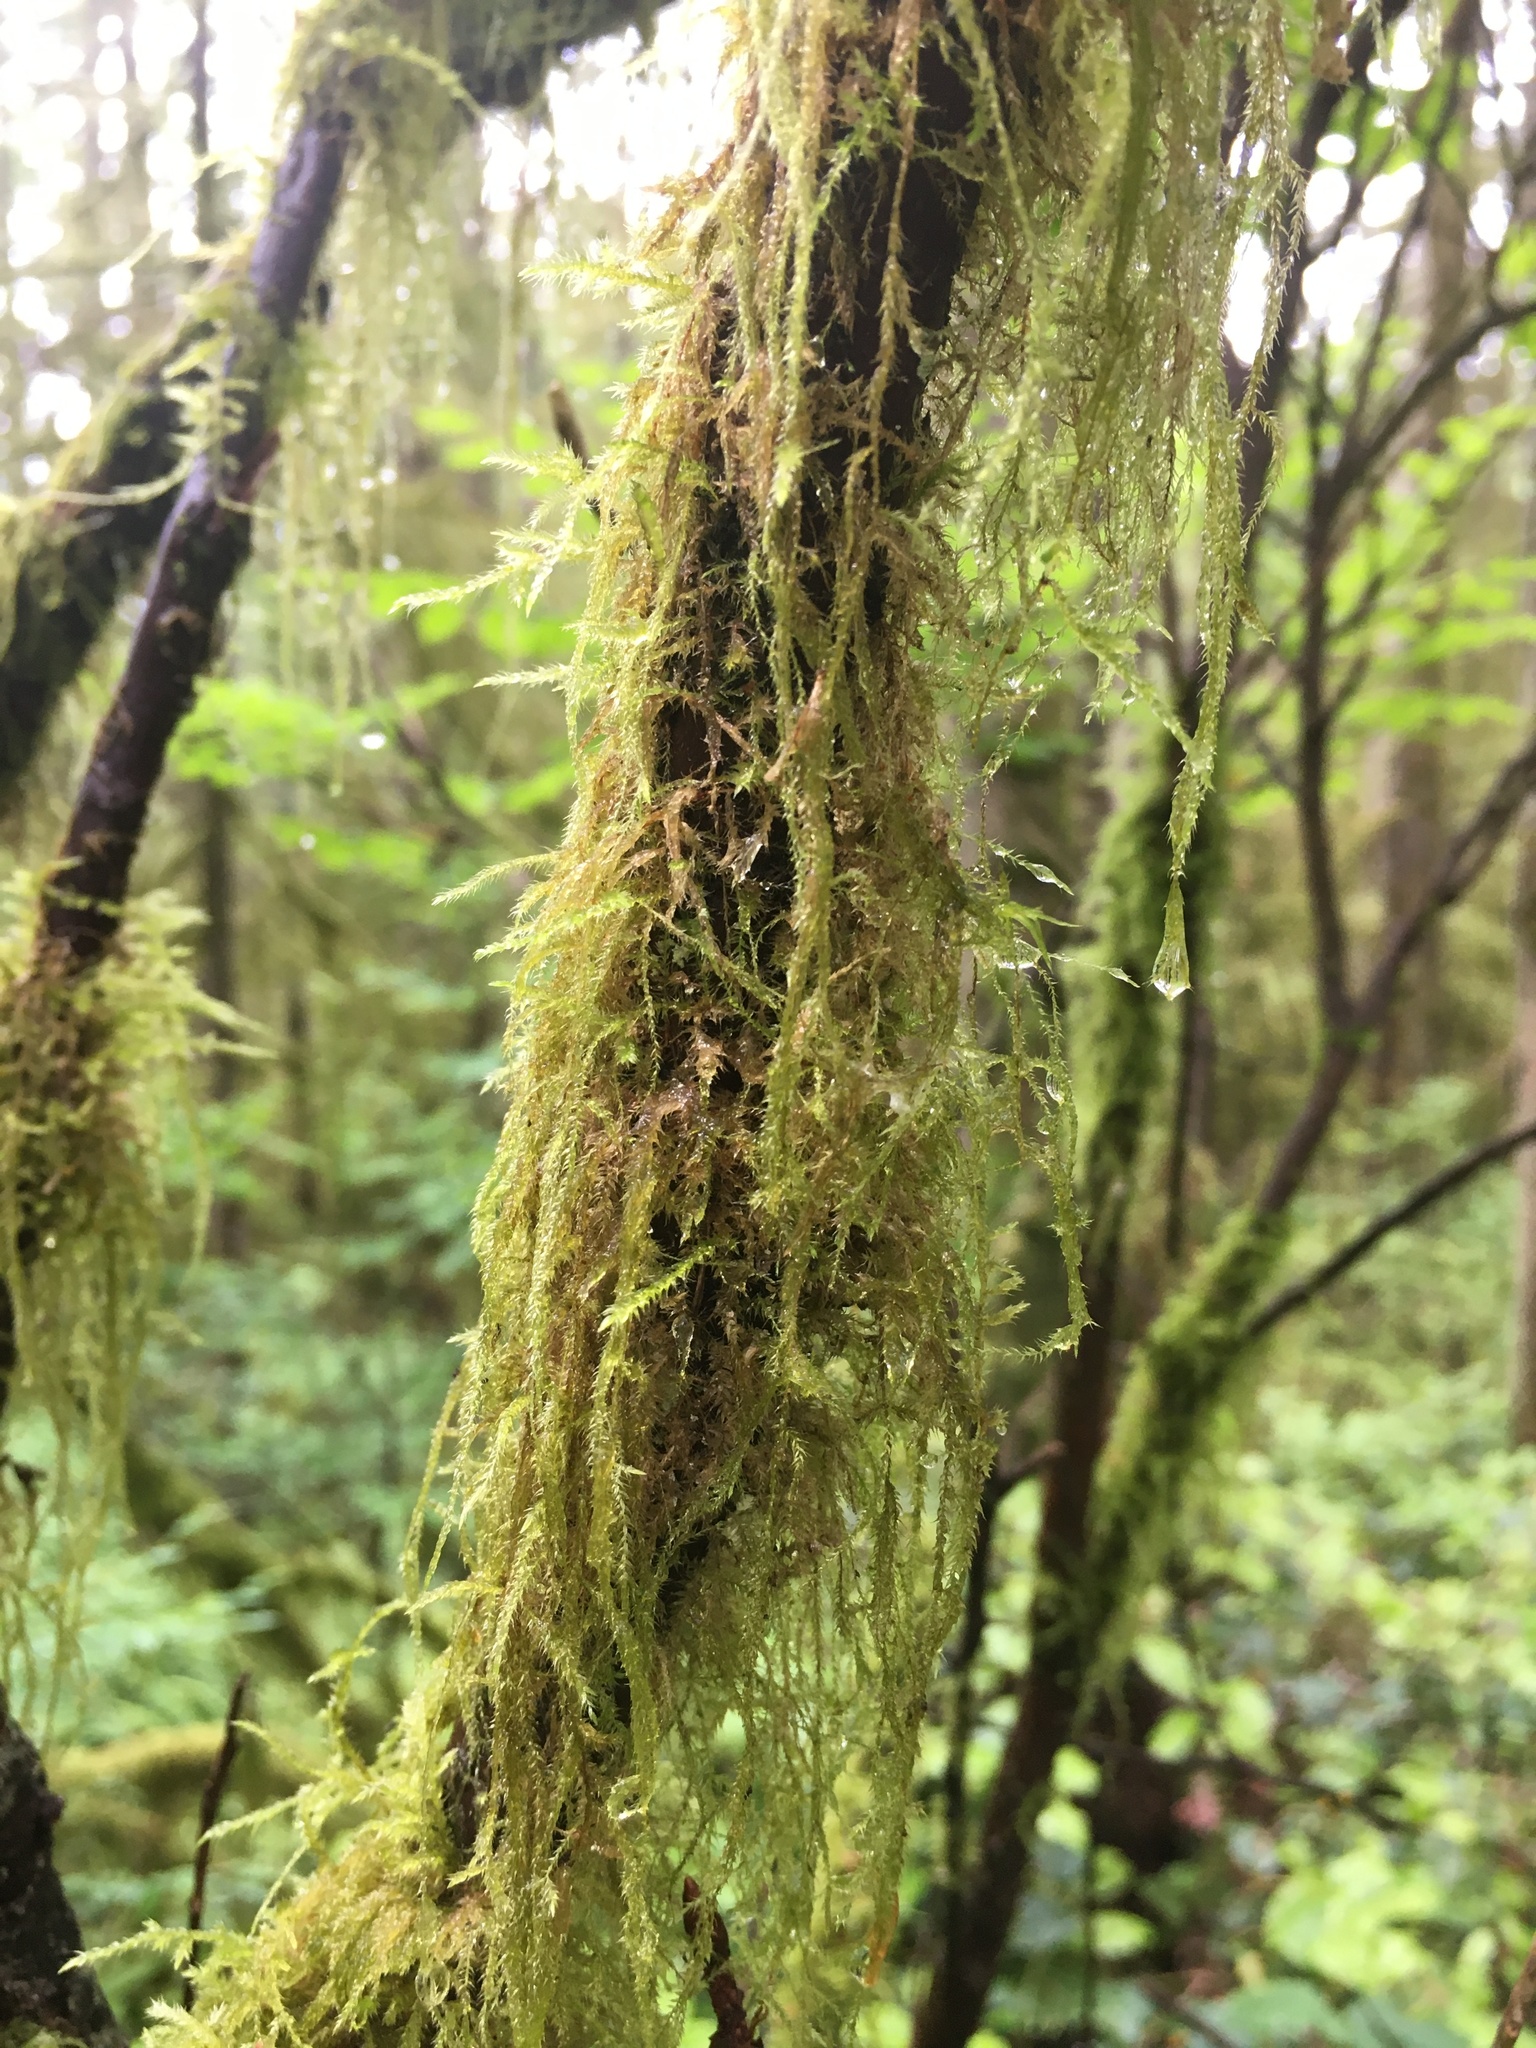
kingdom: Plantae
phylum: Bryophyta
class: Bryopsida
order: Hypnales
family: Lembophyllaceae
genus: Pseudisothecium
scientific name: Pseudisothecium stoloniferum
